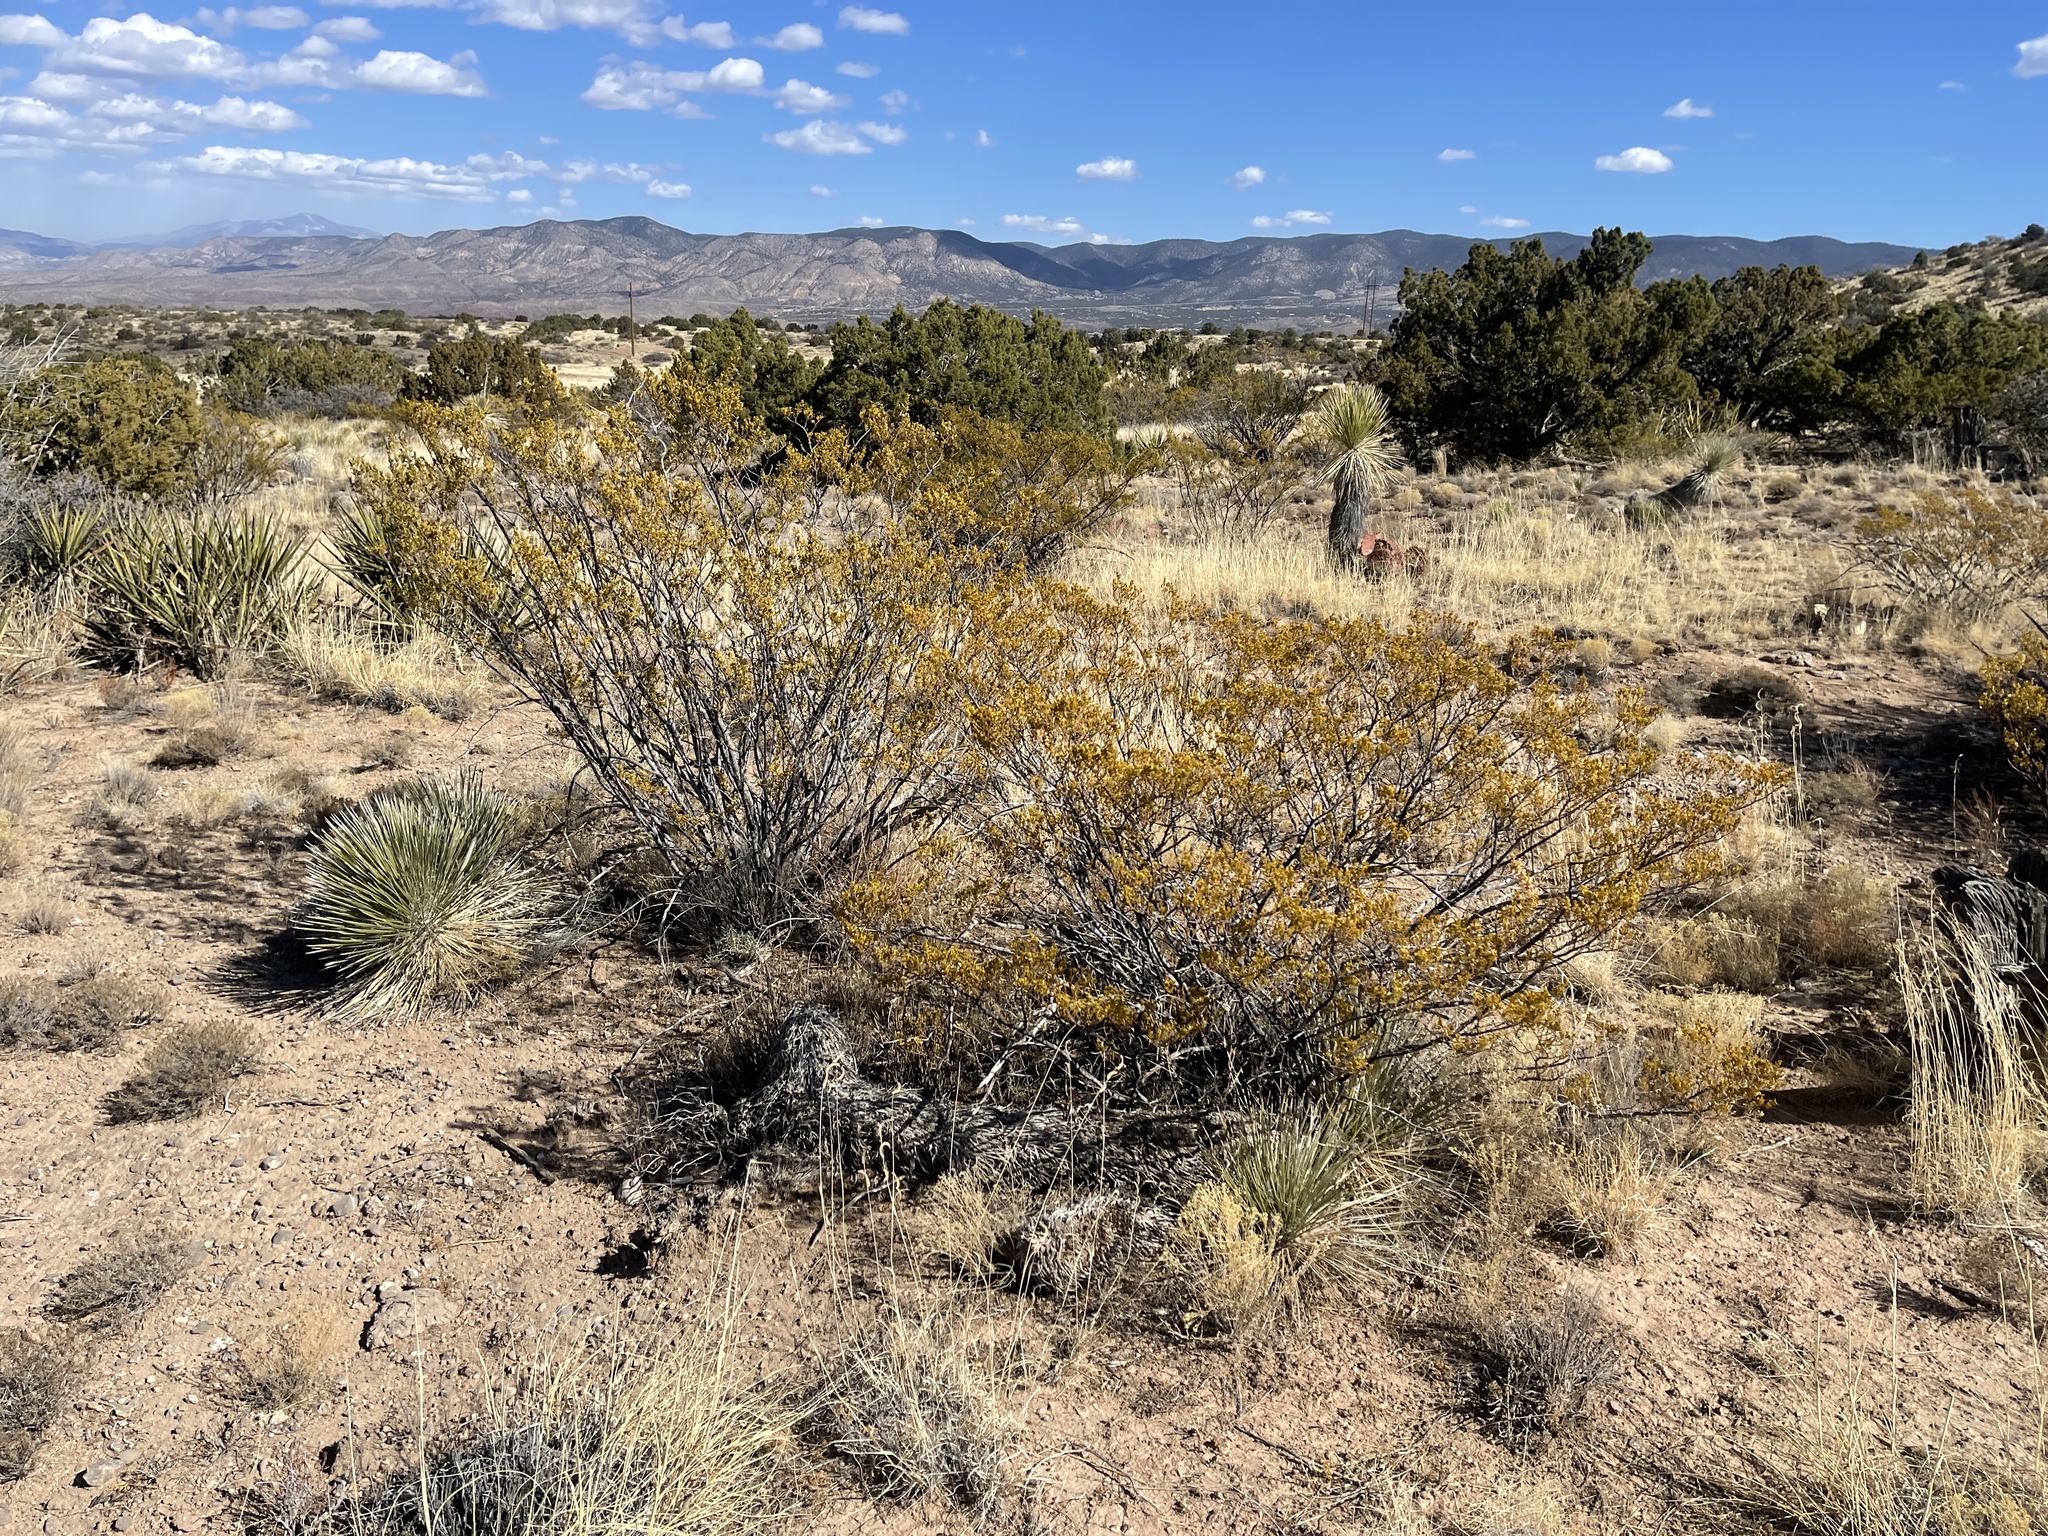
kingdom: Plantae
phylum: Tracheophyta
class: Magnoliopsida
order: Zygophyllales
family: Zygophyllaceae
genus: Larrea
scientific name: Larrea tridentata
